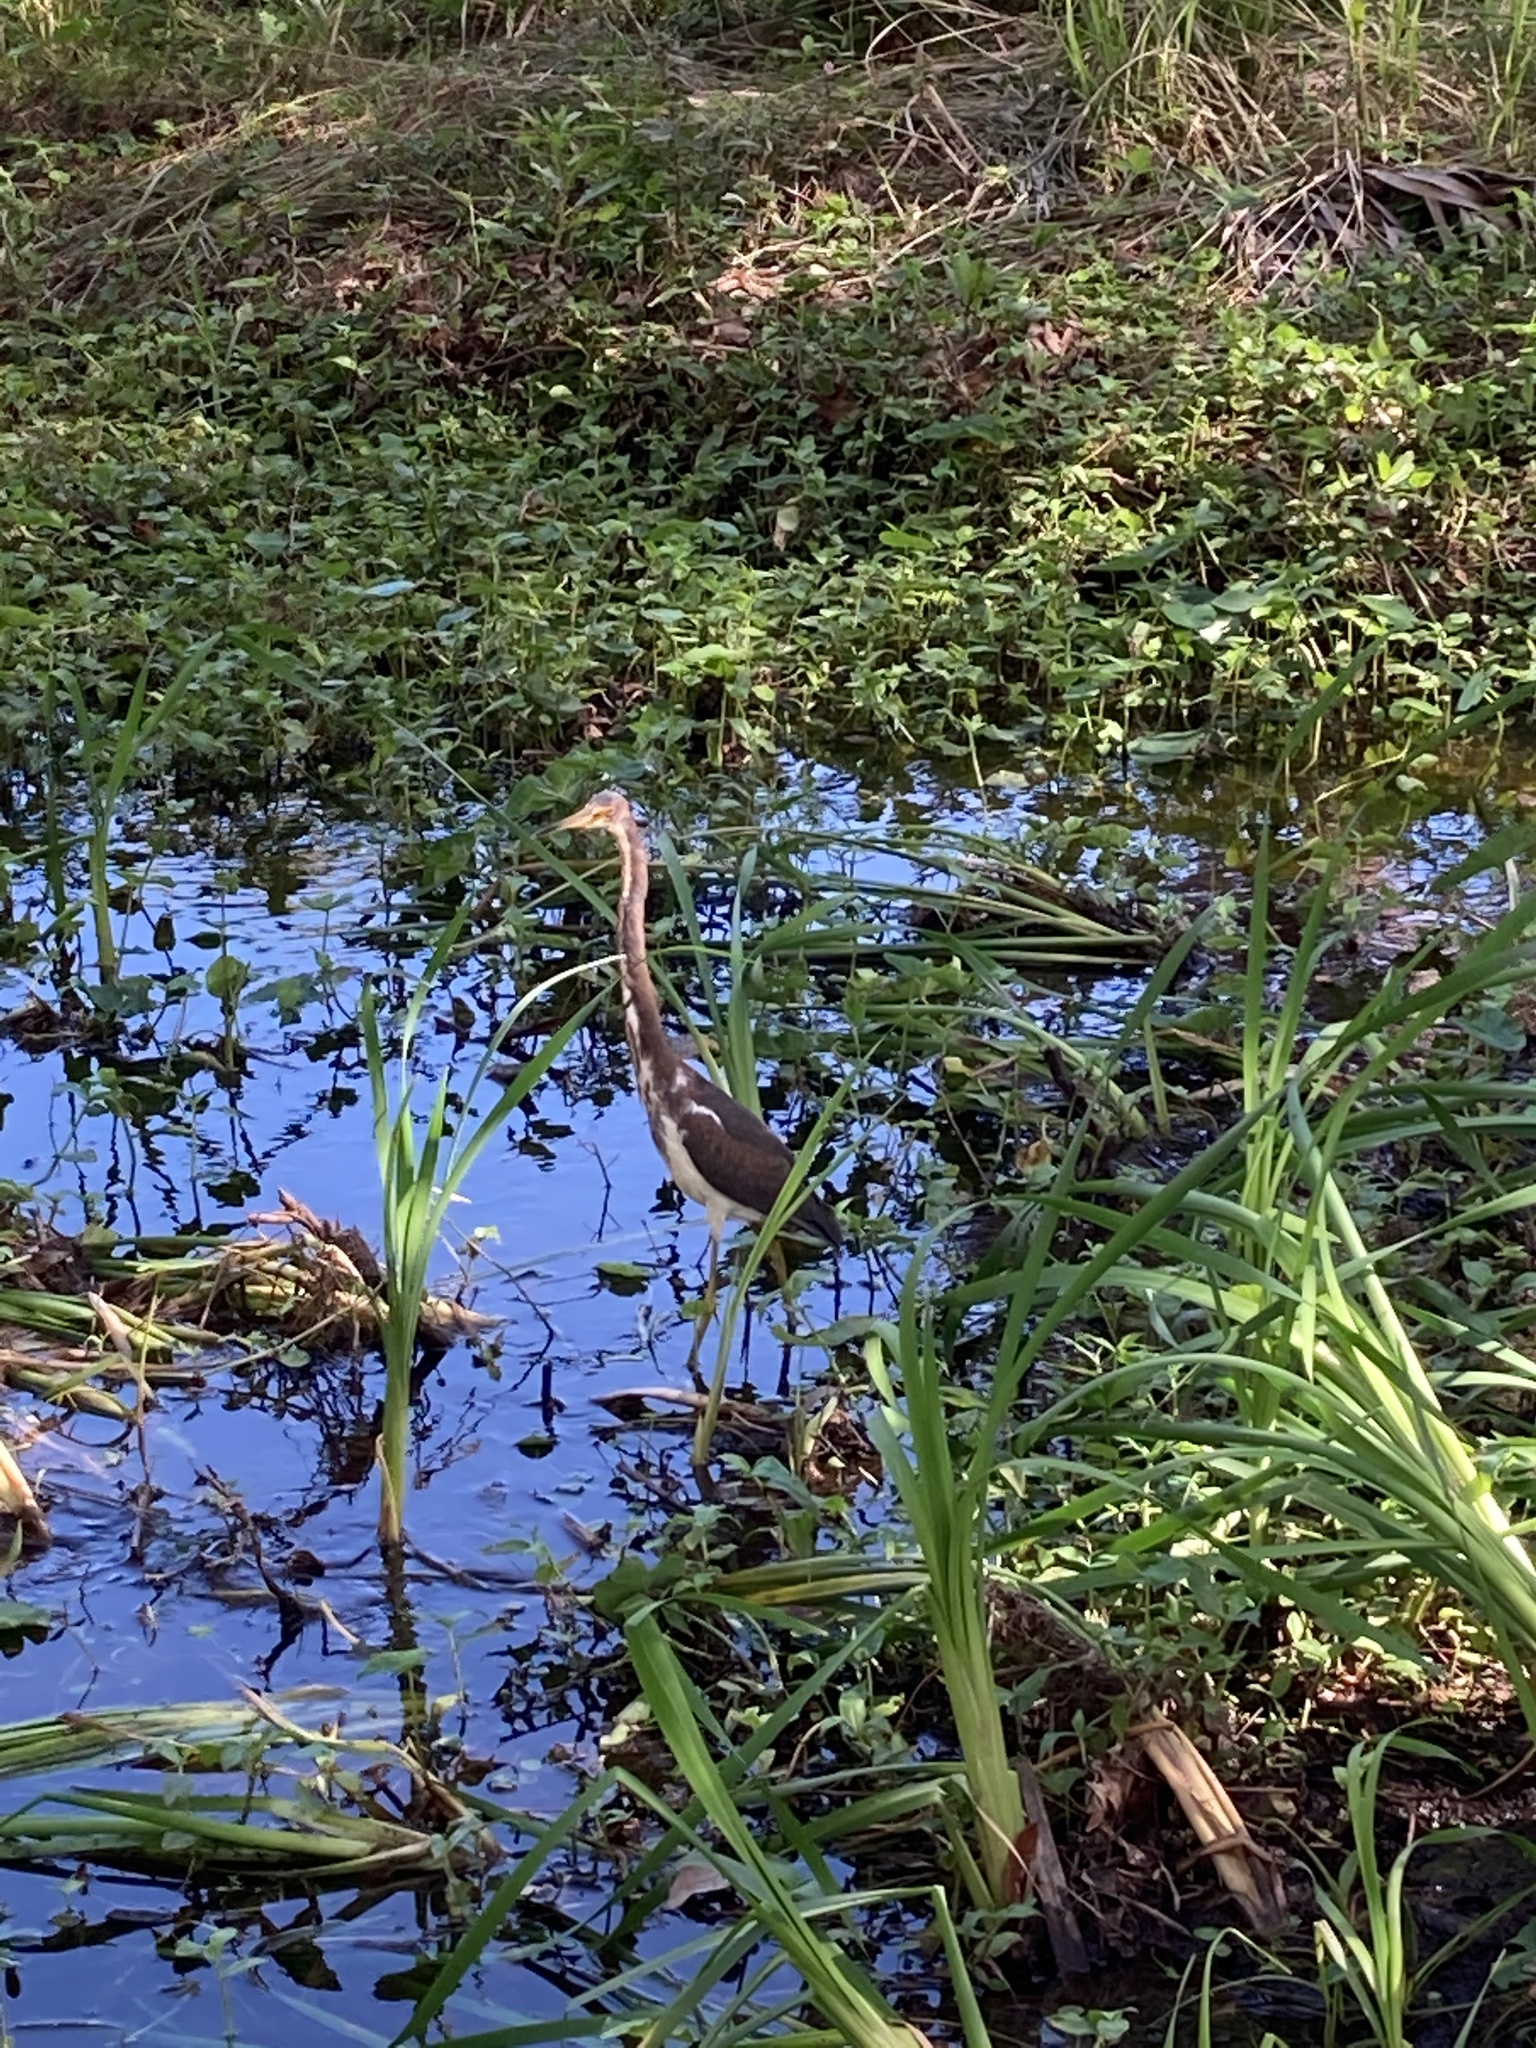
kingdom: Animalia
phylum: Chordata
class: Aves
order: Pelecaniformes
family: Ardeidae
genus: Egretta
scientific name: Egretta tricolor
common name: Tricolored heron
